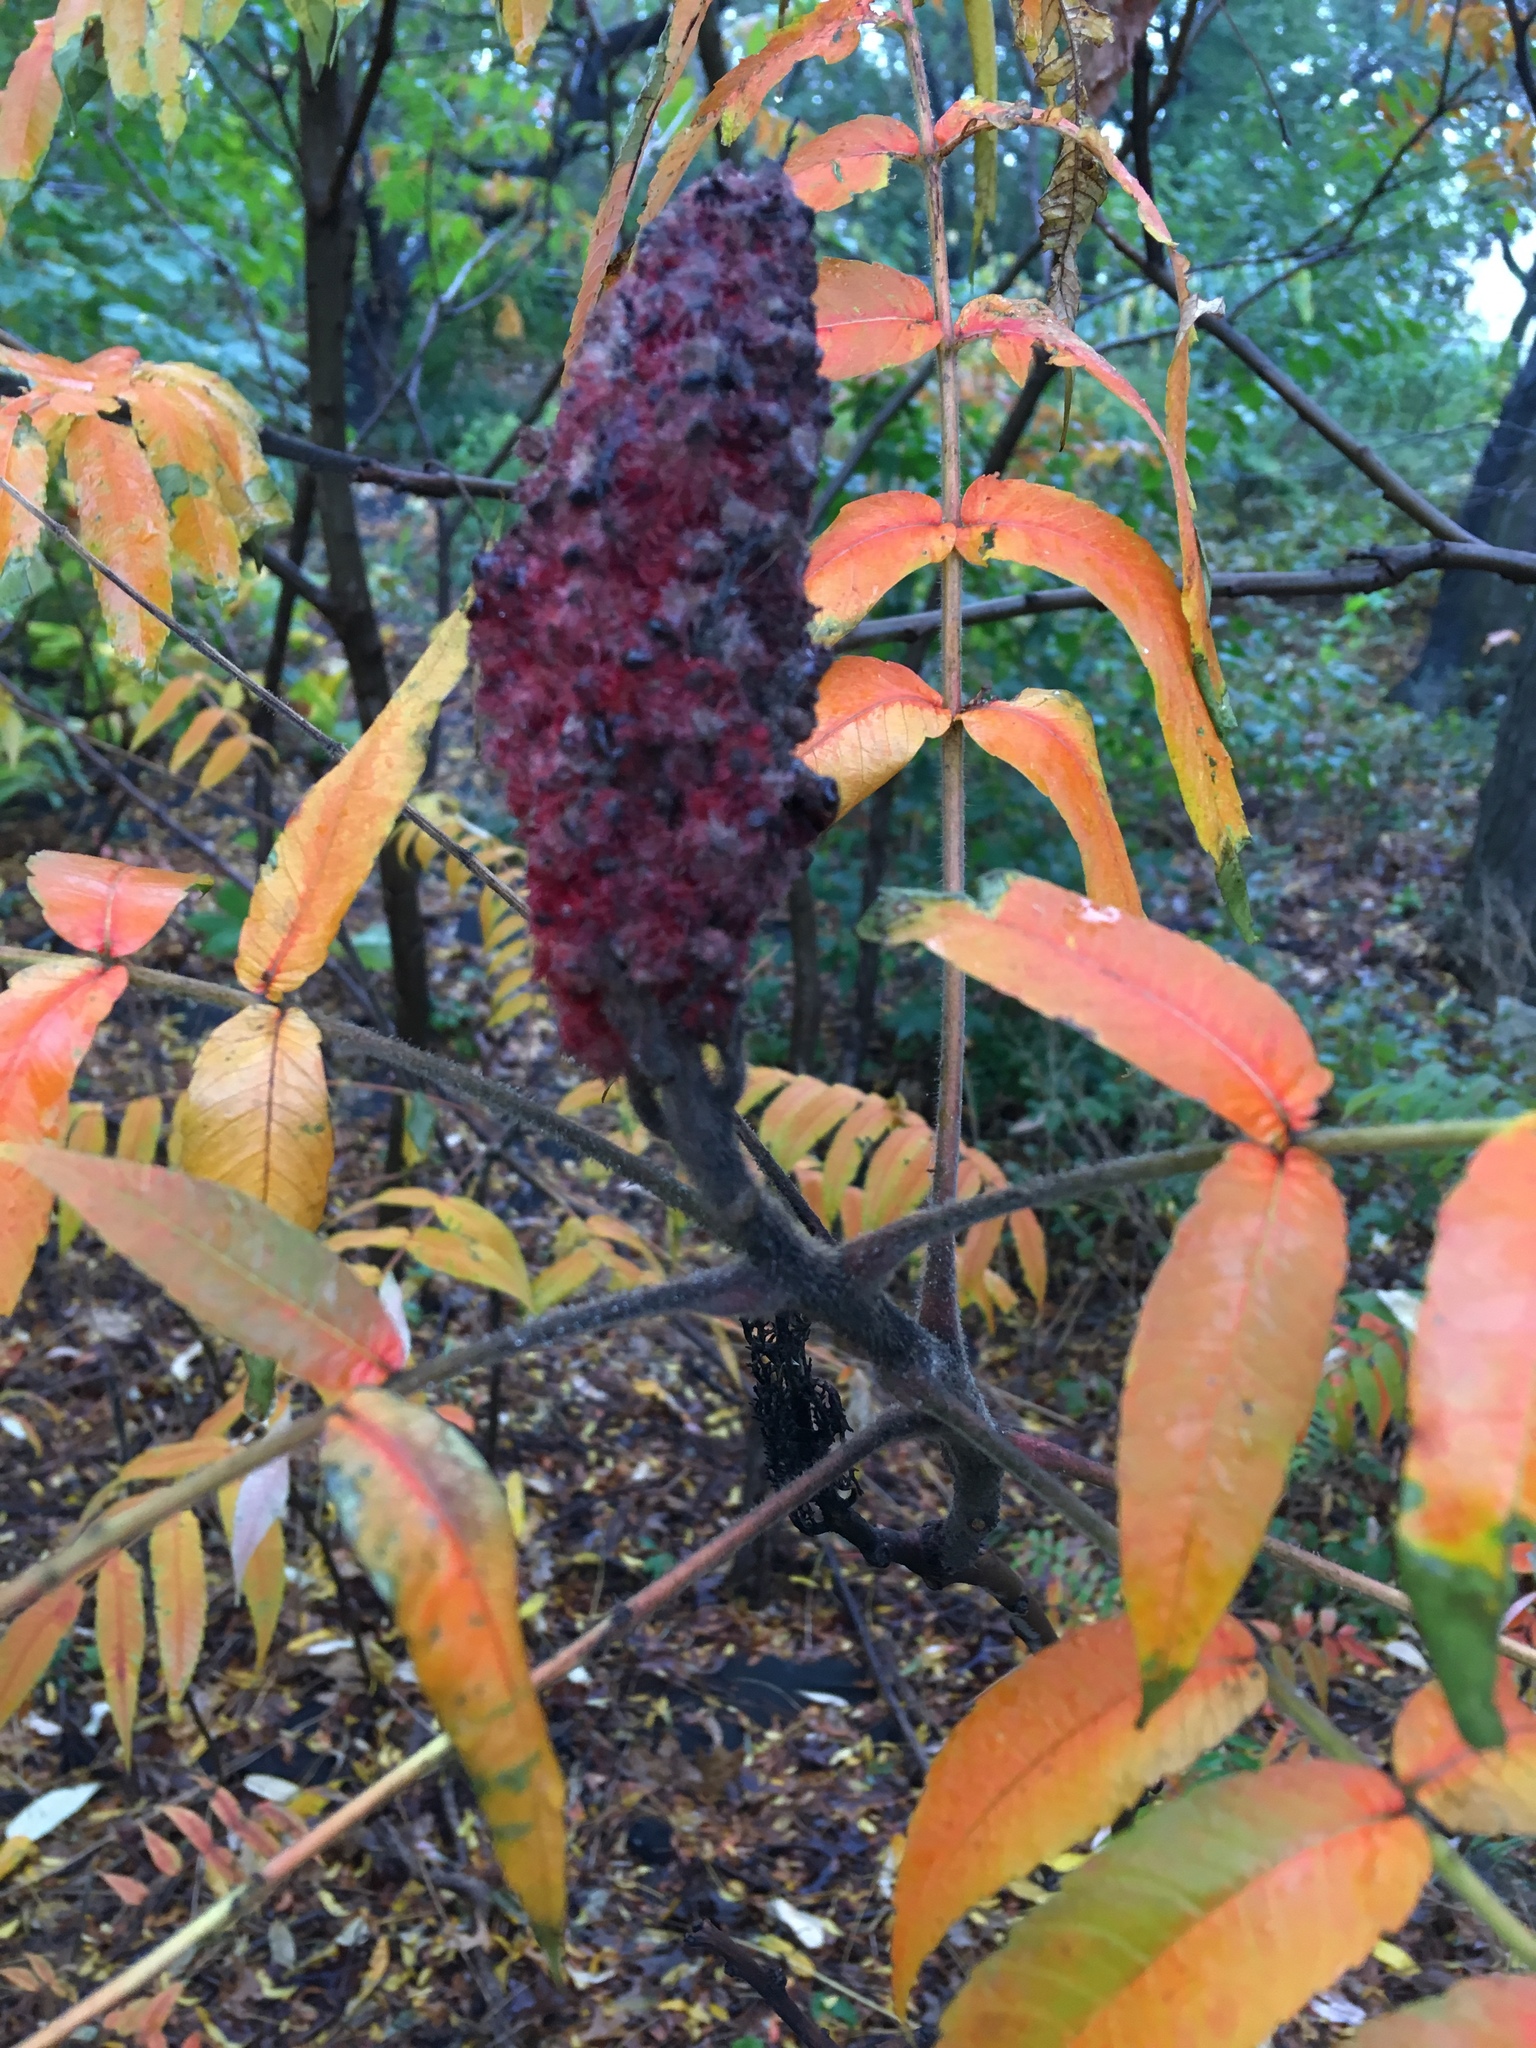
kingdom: Plantae
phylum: Tracheophyta
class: Magnoliopsida
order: Sapindales
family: Anacardiaceae
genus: Rhus
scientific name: Rhus typhina
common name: Staghorn sumac
